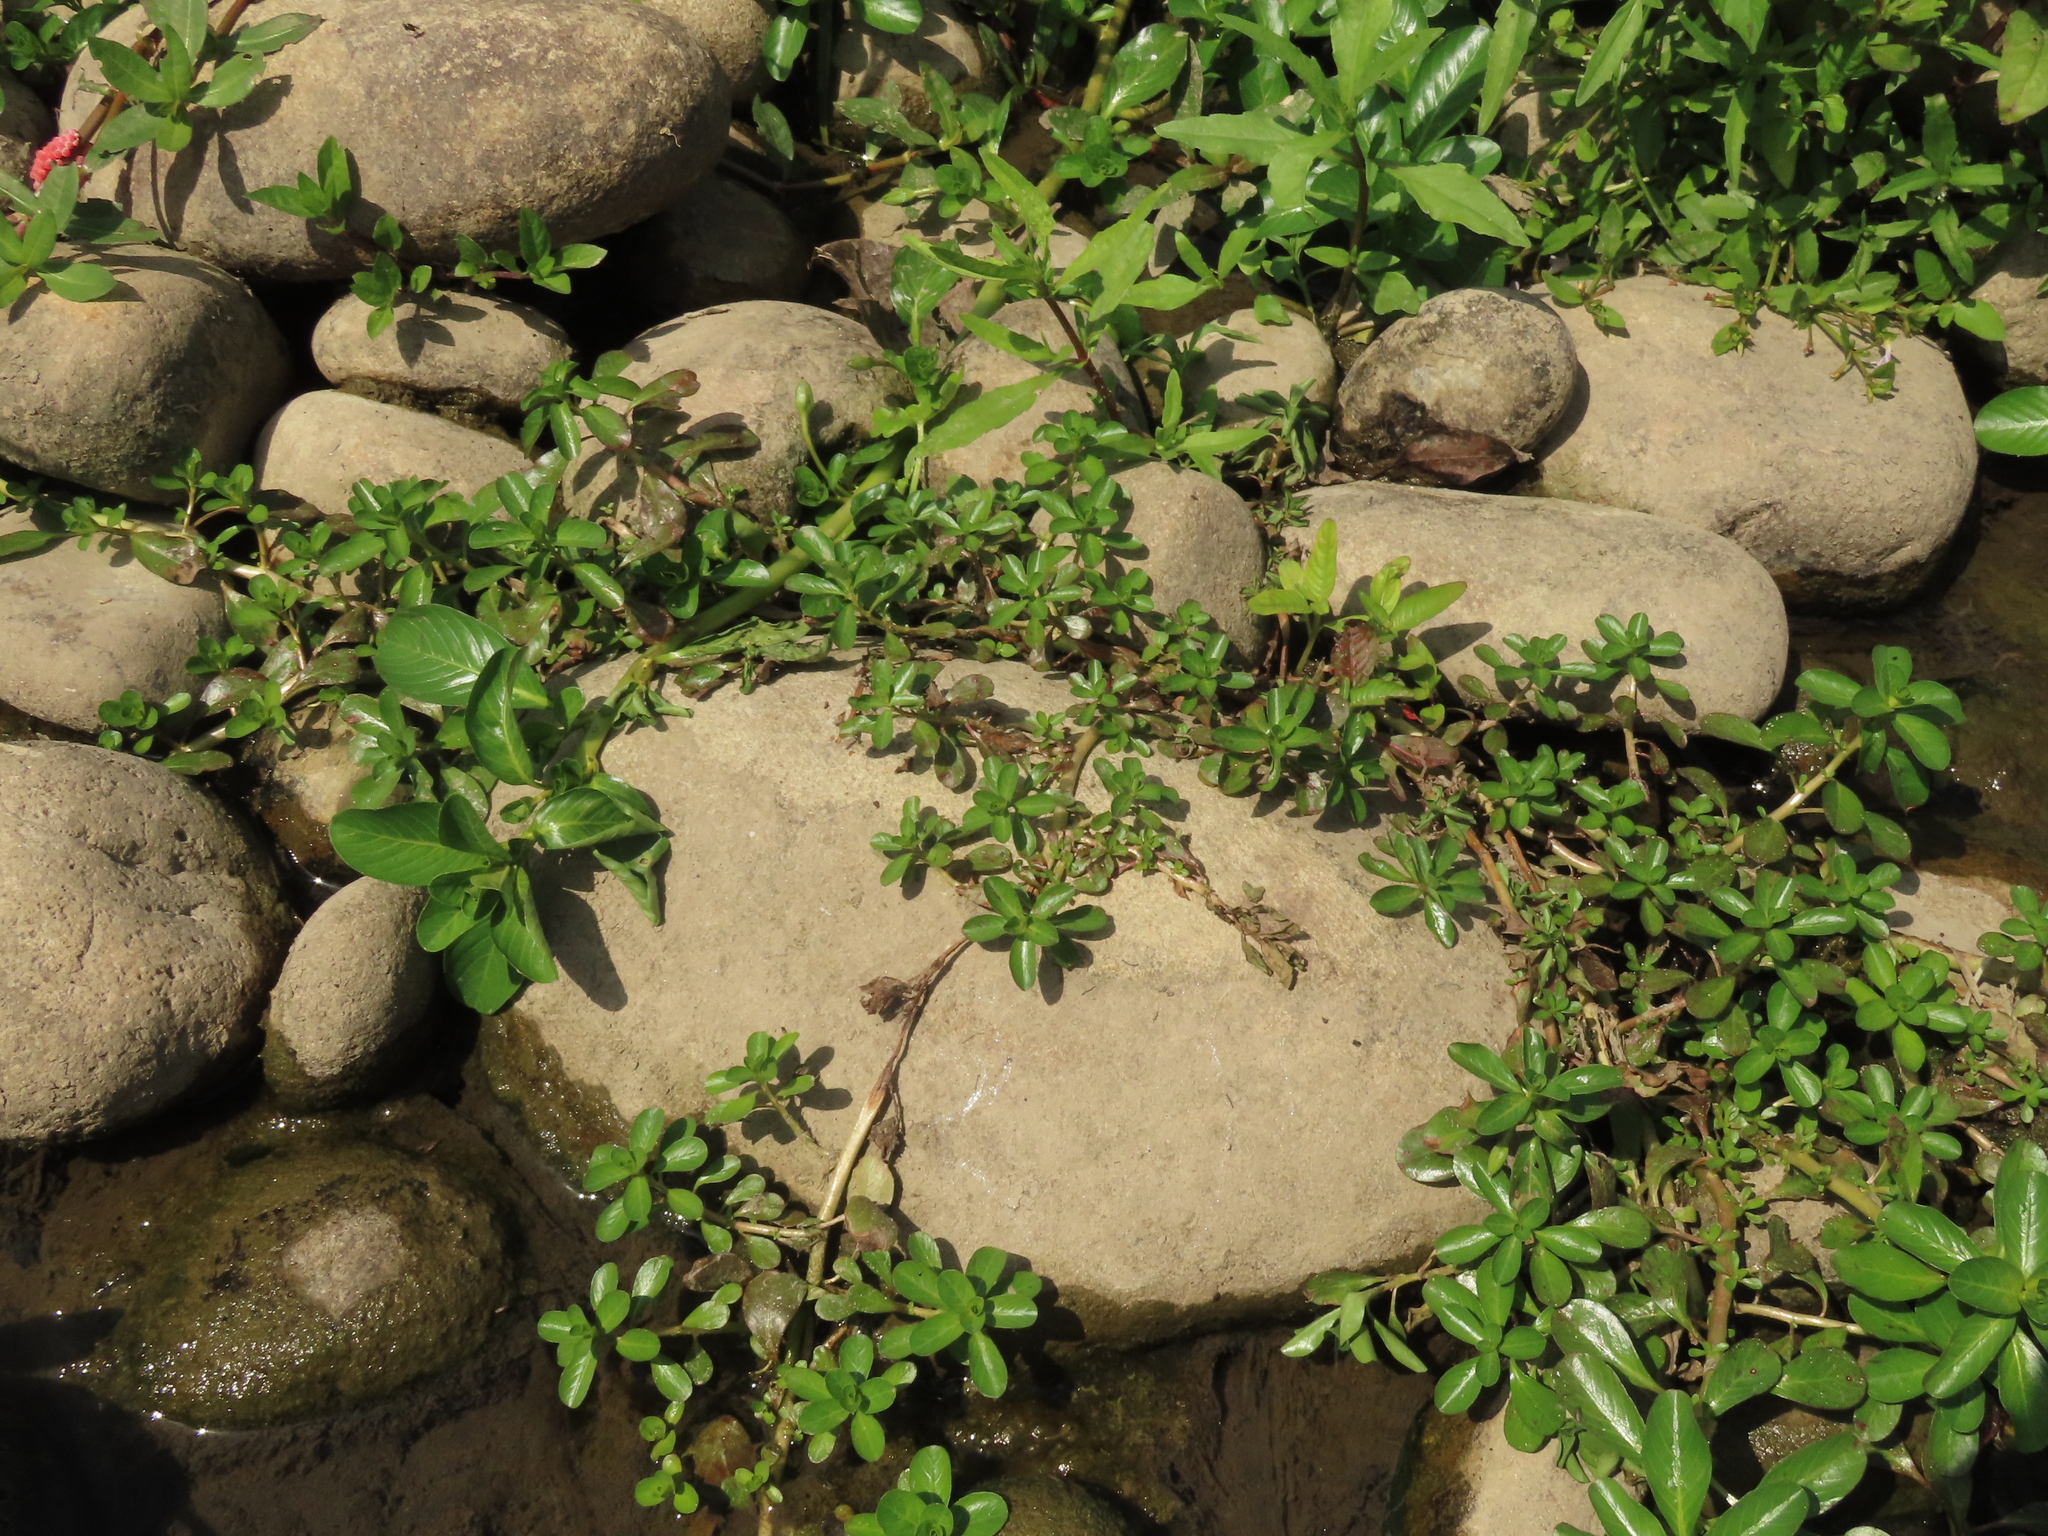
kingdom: Plantae
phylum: Tracheophyta
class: Magnoliopsida
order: Myrtales
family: Onagraceae
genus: Ludwigia
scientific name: Ludwigia taiwanensis
